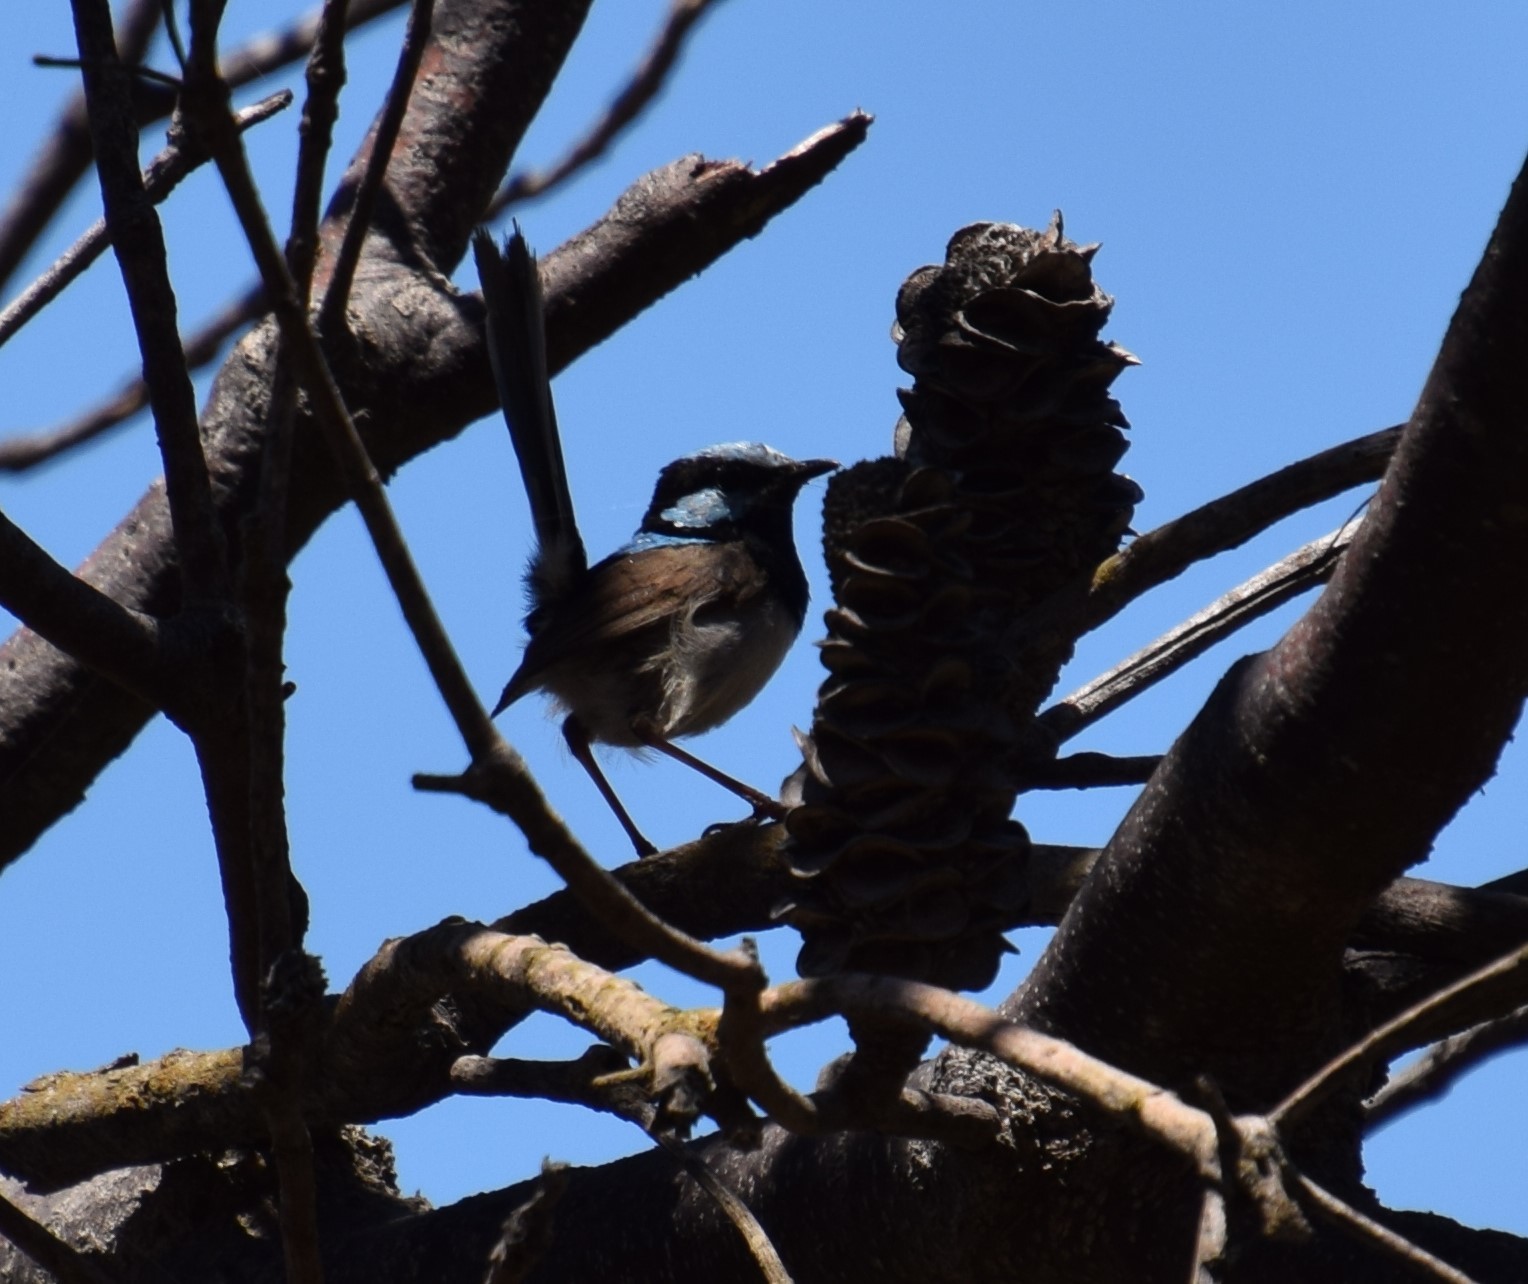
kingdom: Animalia
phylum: Chordata
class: Aves
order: Passeriformes
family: Maluridae
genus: Malurus
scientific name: Malurus cyaneus
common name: Superb fairywren
